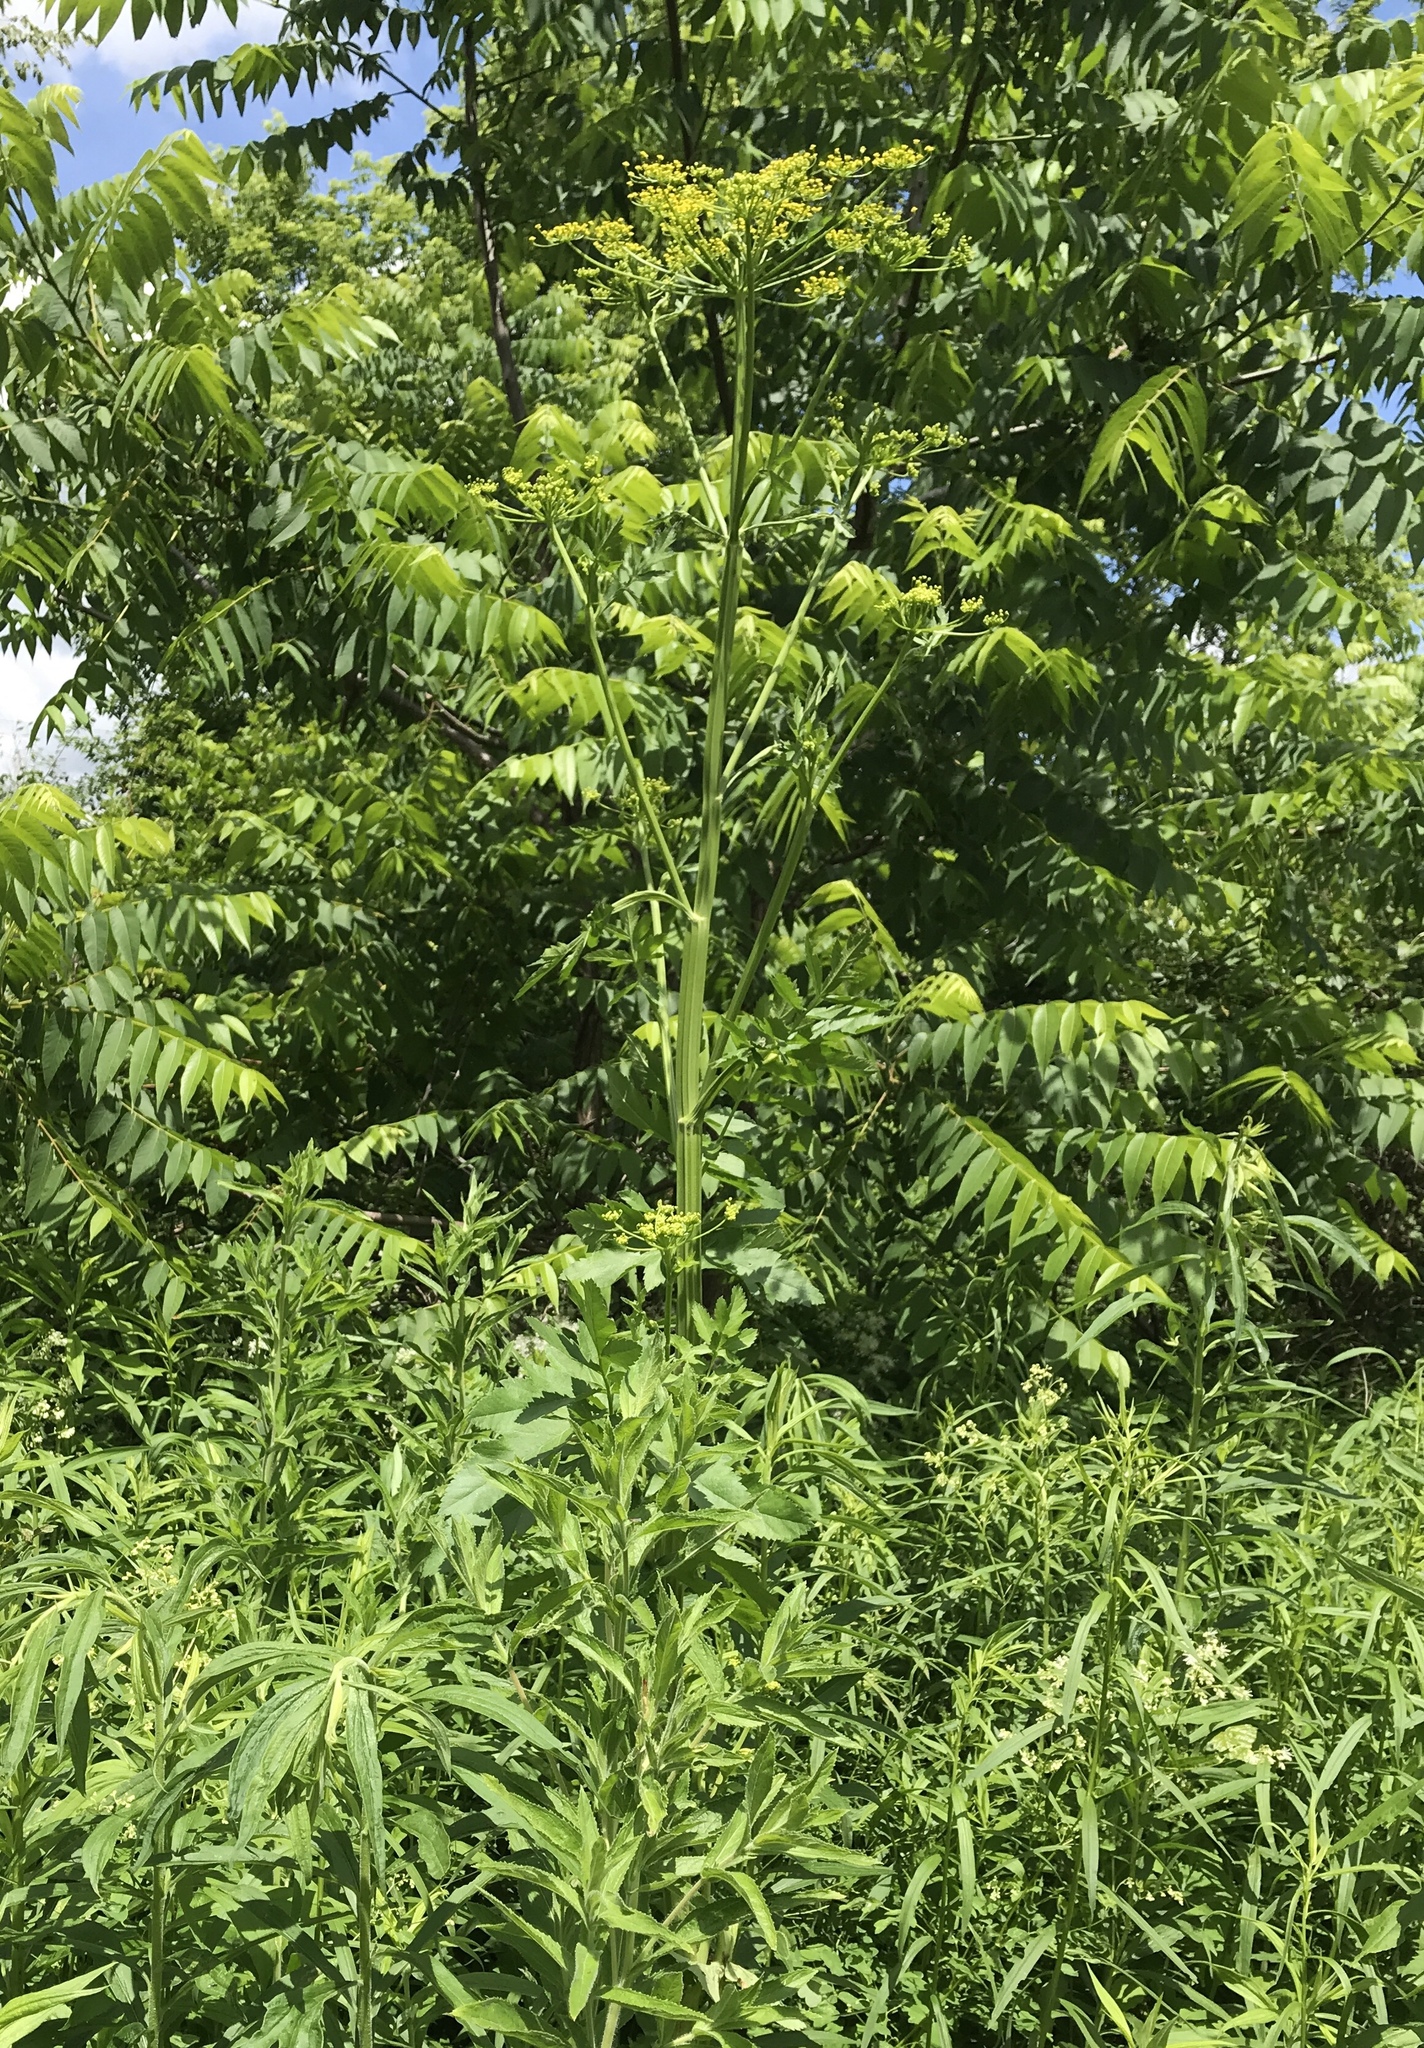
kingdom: Plantae
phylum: Tracheophyta
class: Magnoliopsida
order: Apiales
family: Apiaceae
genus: Pastinaca
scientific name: Pastinaca sativa
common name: Wild parsnip
